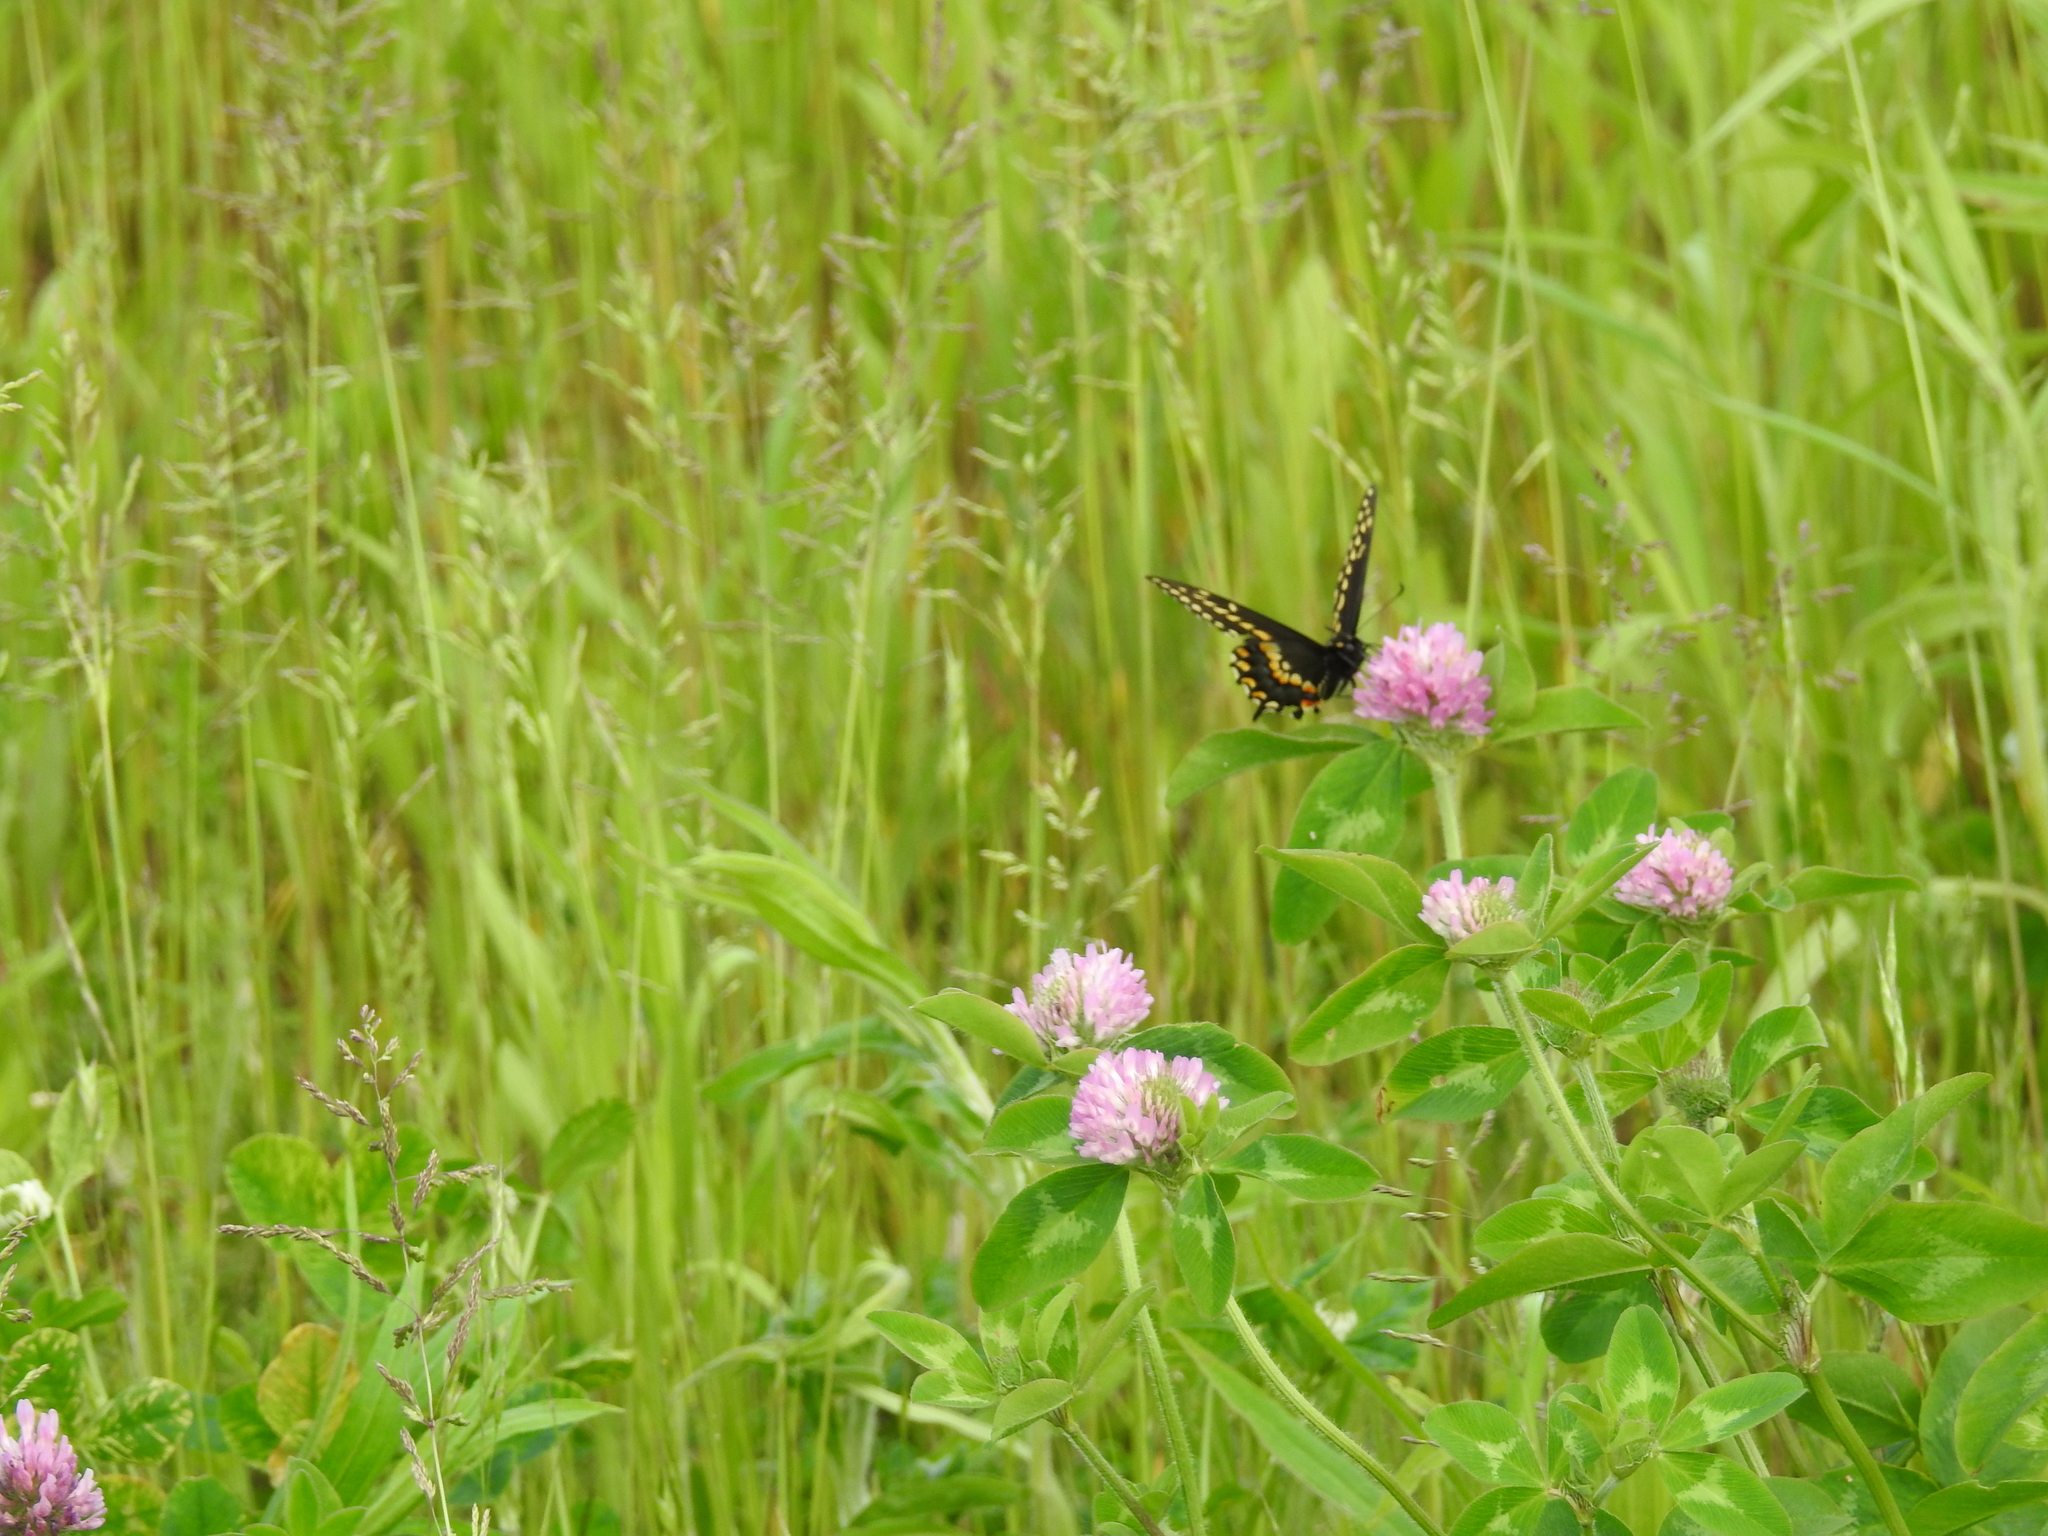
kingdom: Animalia
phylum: Arthropoda
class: Insecta
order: Lepidoptera
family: Papilionidae
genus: Papilio
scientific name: Papilio polyxenes
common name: Black swallowtail
